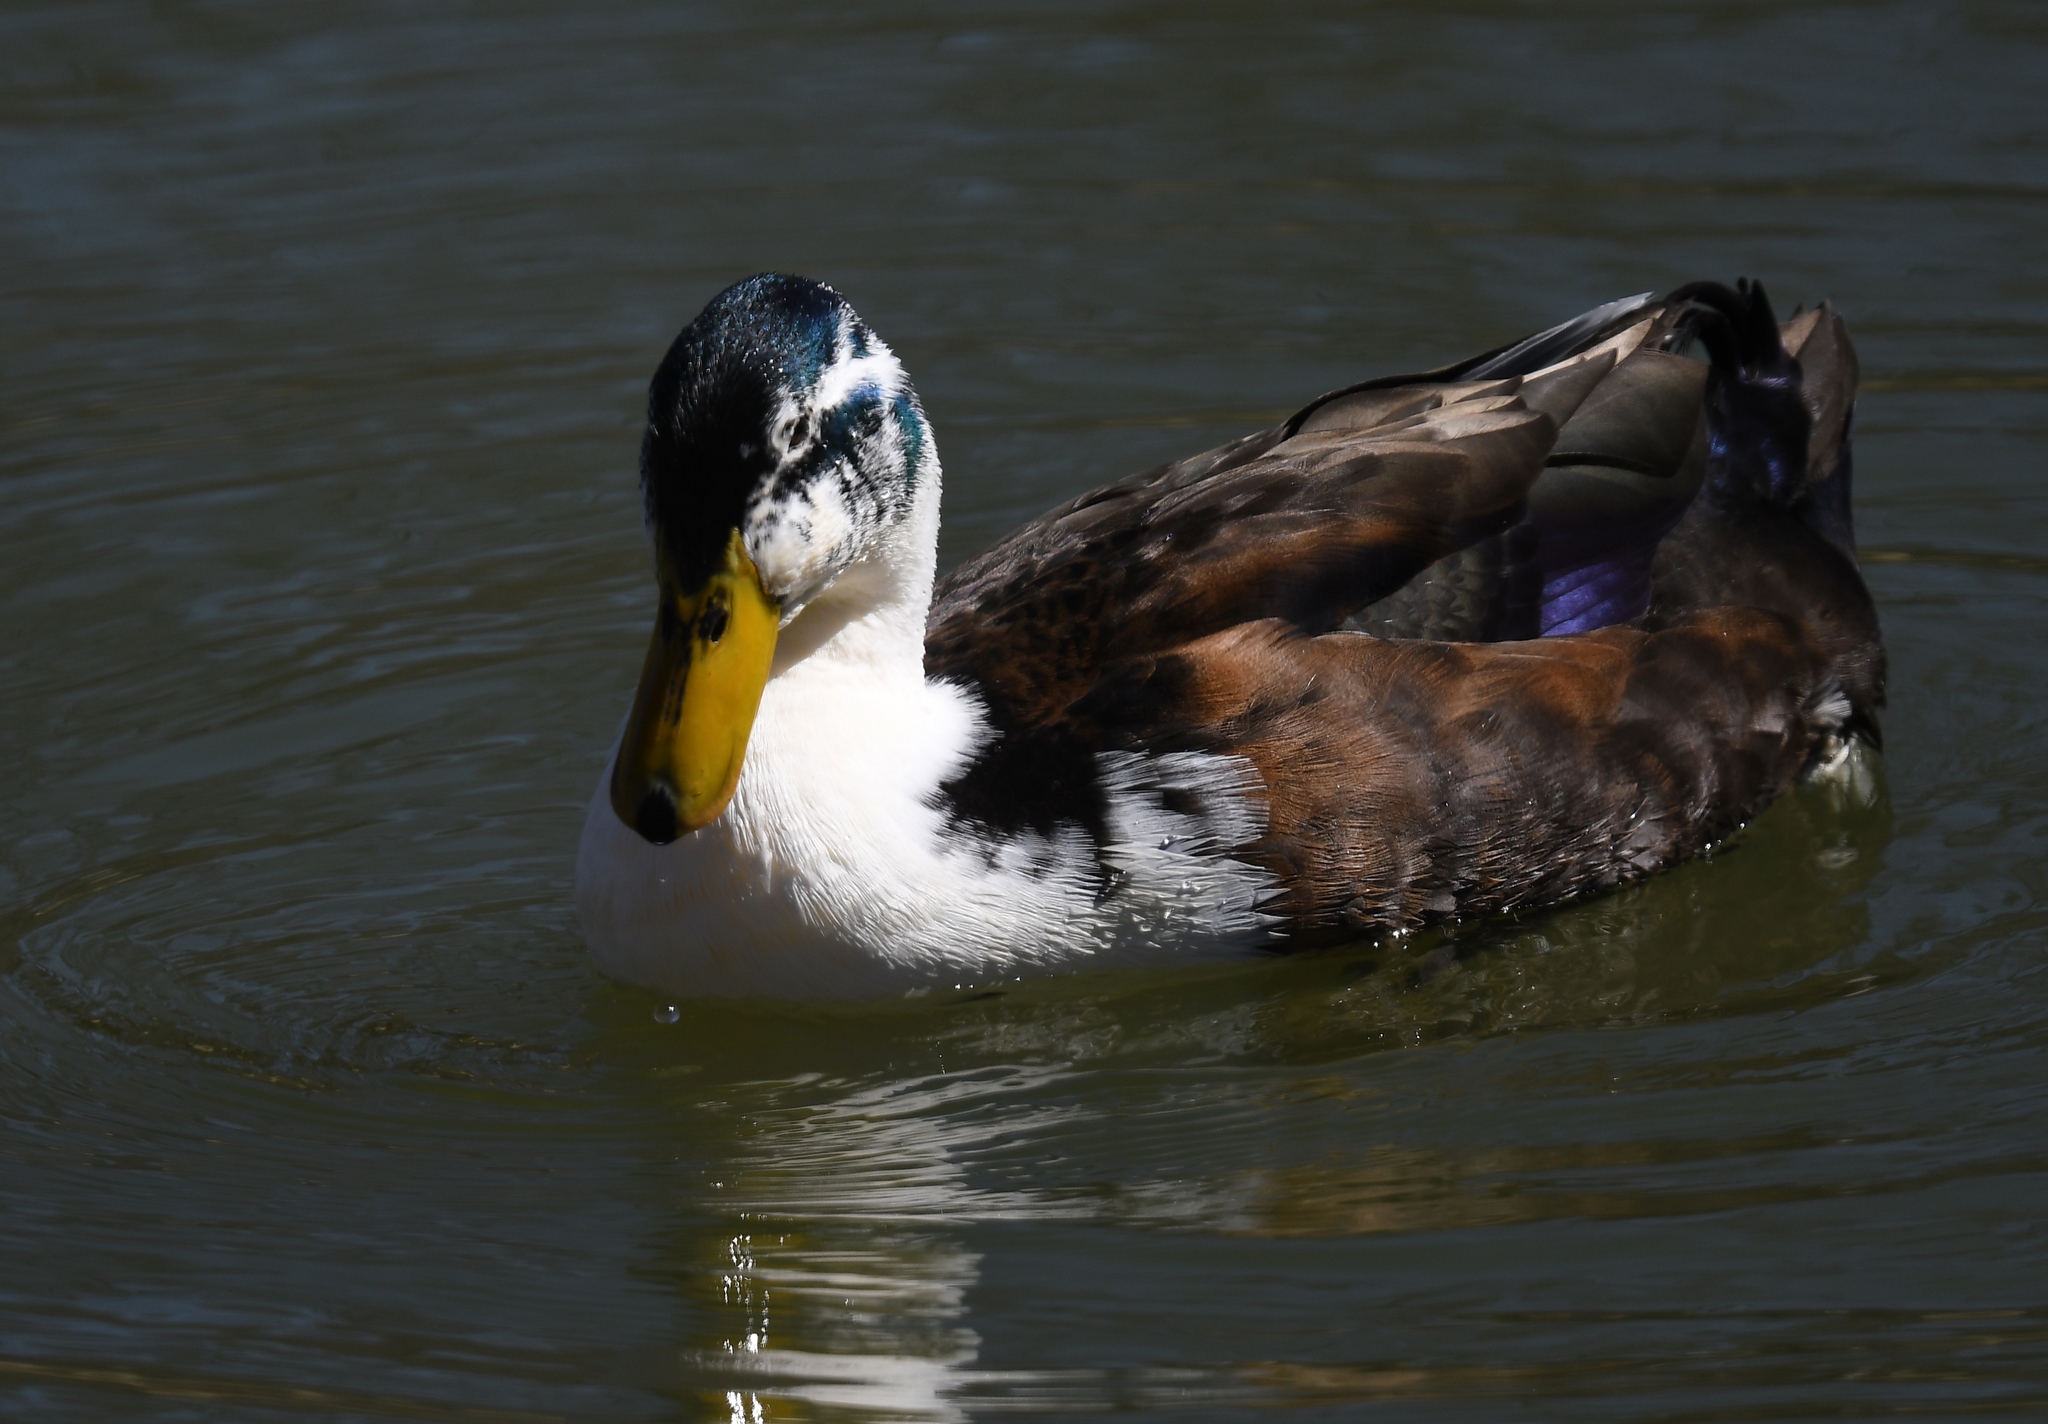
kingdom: Animalia
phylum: Chordata
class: Aves
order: Anseriformes
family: Anatidae
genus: Anas
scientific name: Anas platyrhynchos
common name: Mallard
